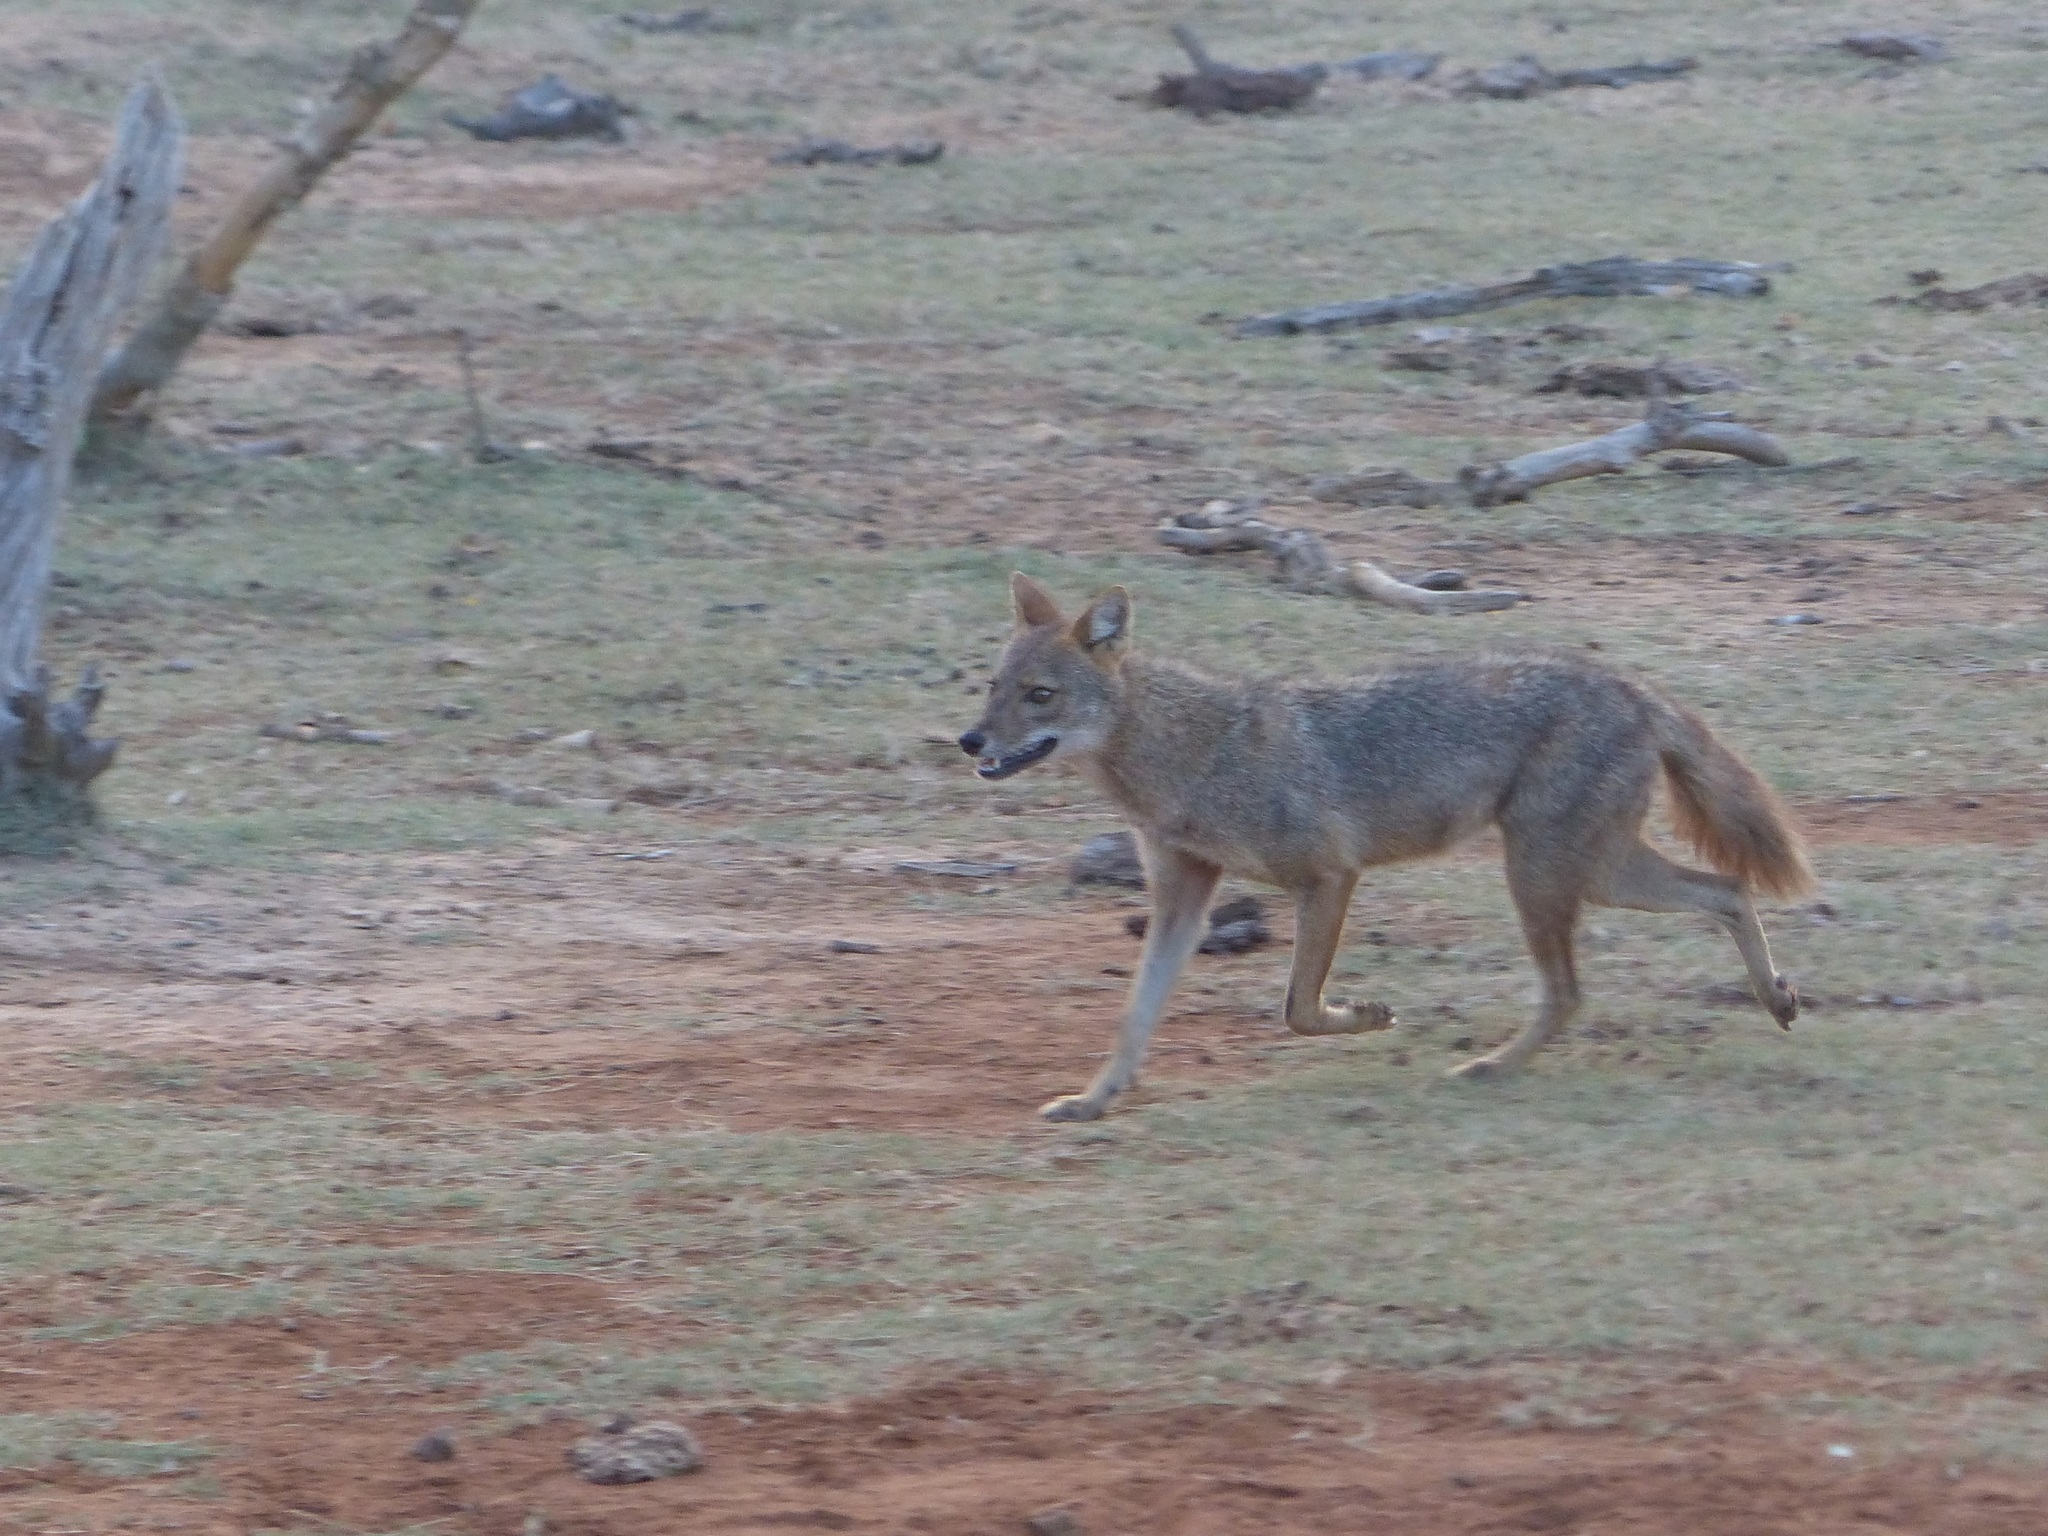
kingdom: Animalia
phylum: Chordata
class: Mammalia
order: Carnivora
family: Canidae
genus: Canis
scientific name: Canis aureus
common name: Golden jackal
